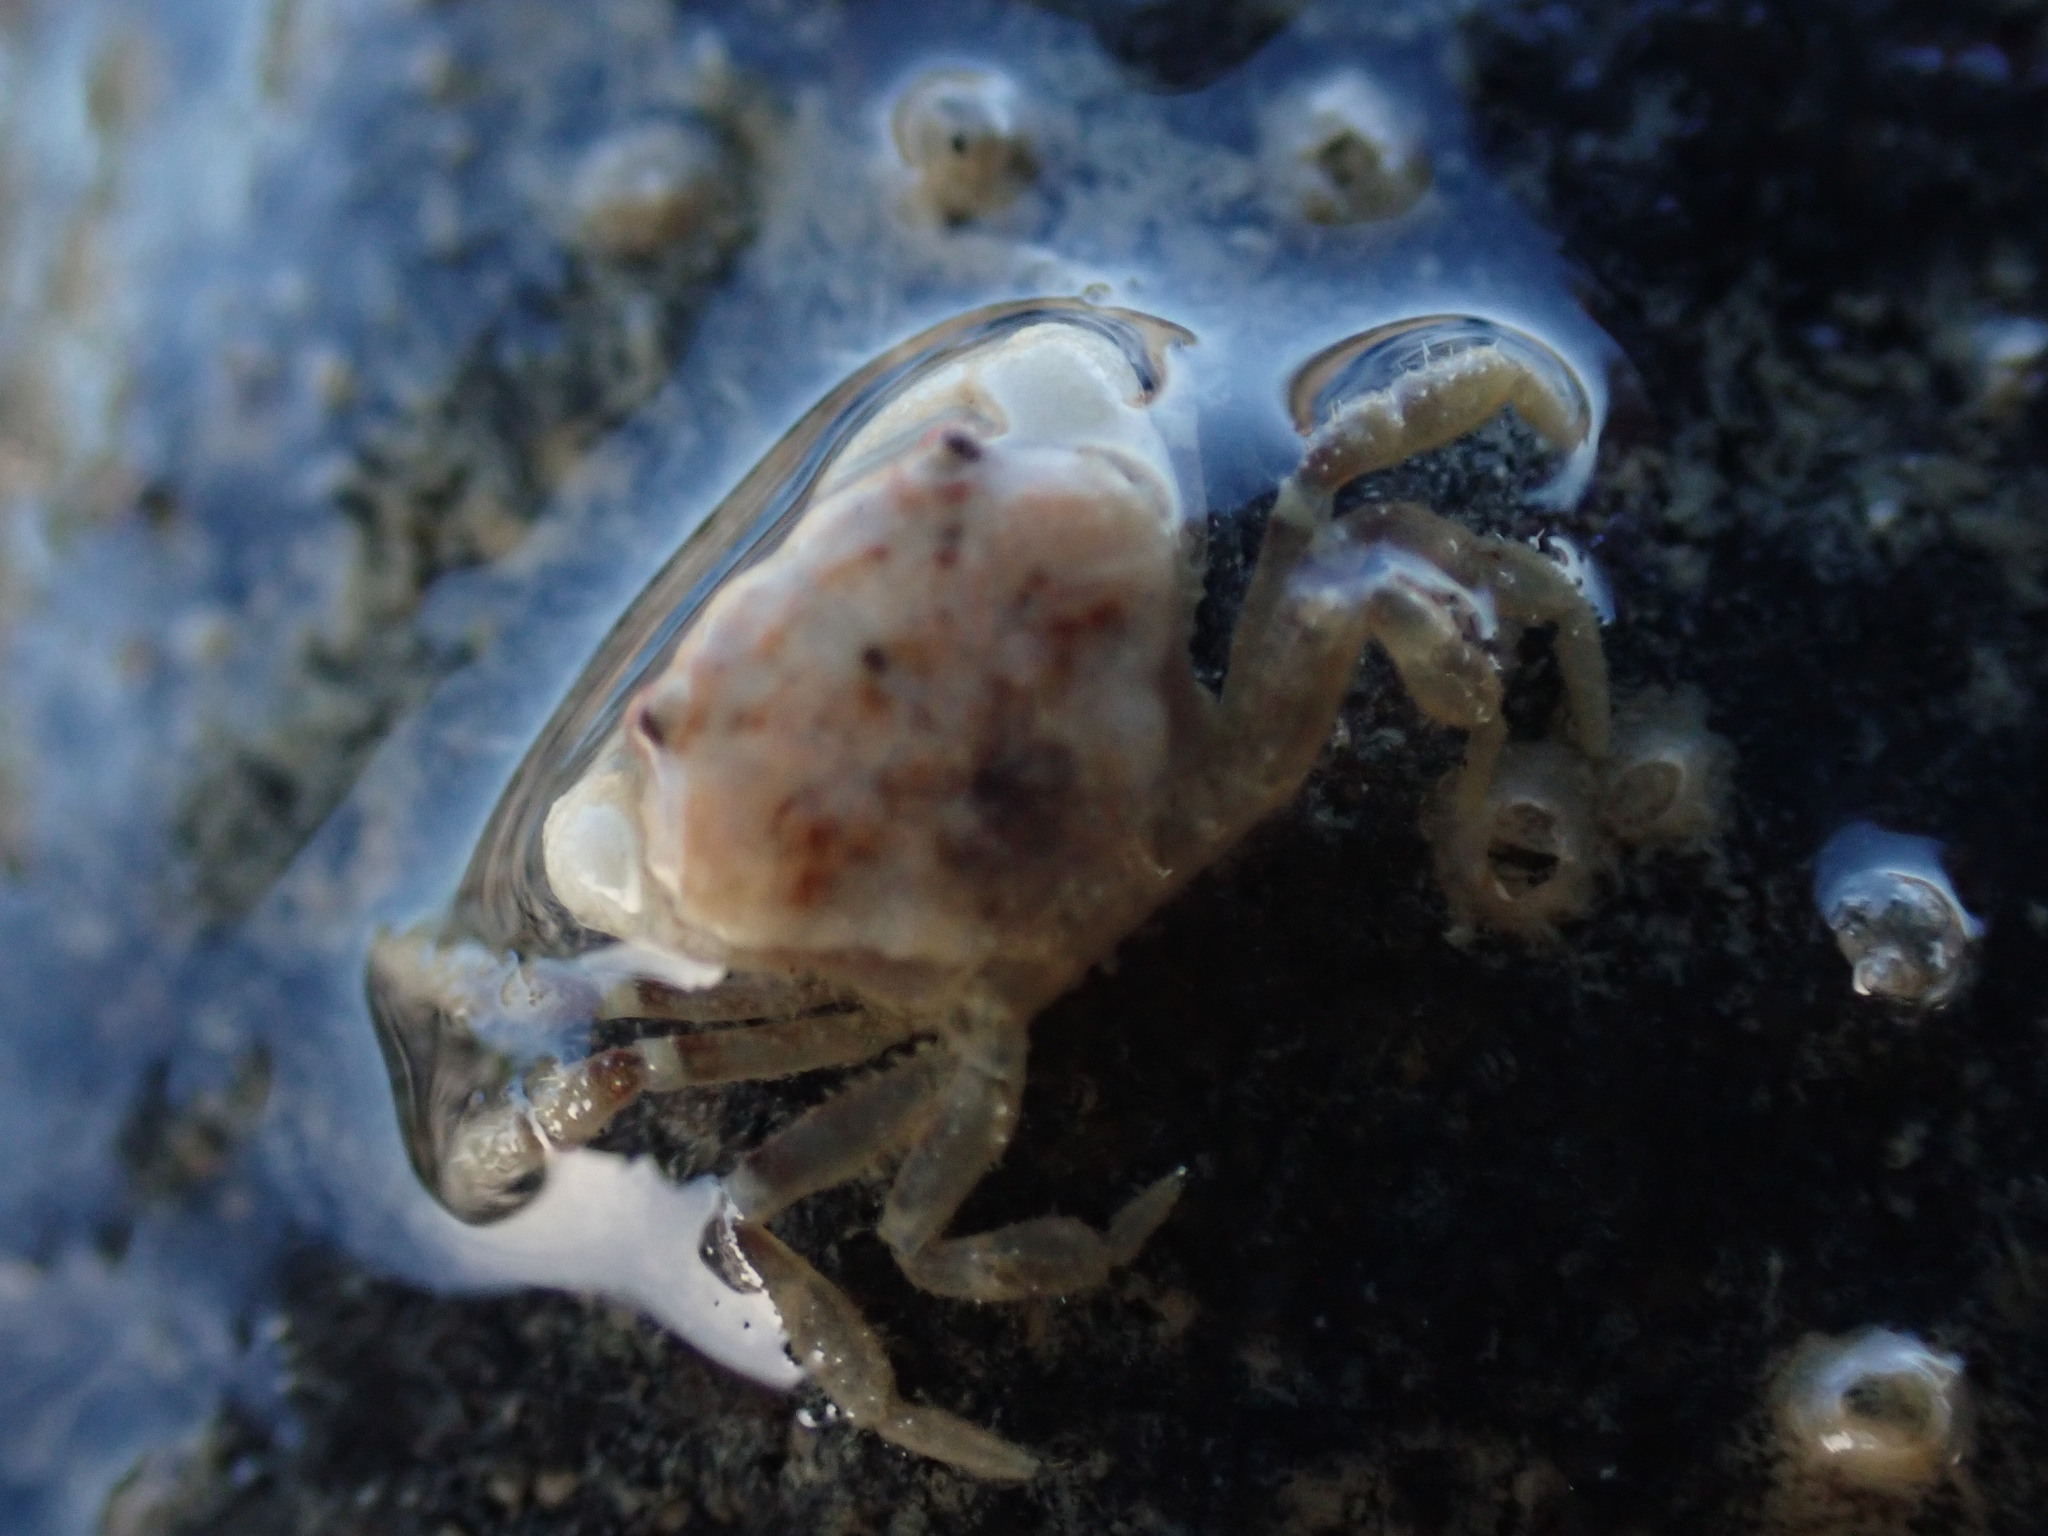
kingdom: Animalia
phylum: Arthropoda
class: Malacostraca
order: Decapoda
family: Oziidae
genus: Ozius
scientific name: Ozius deplanatus
